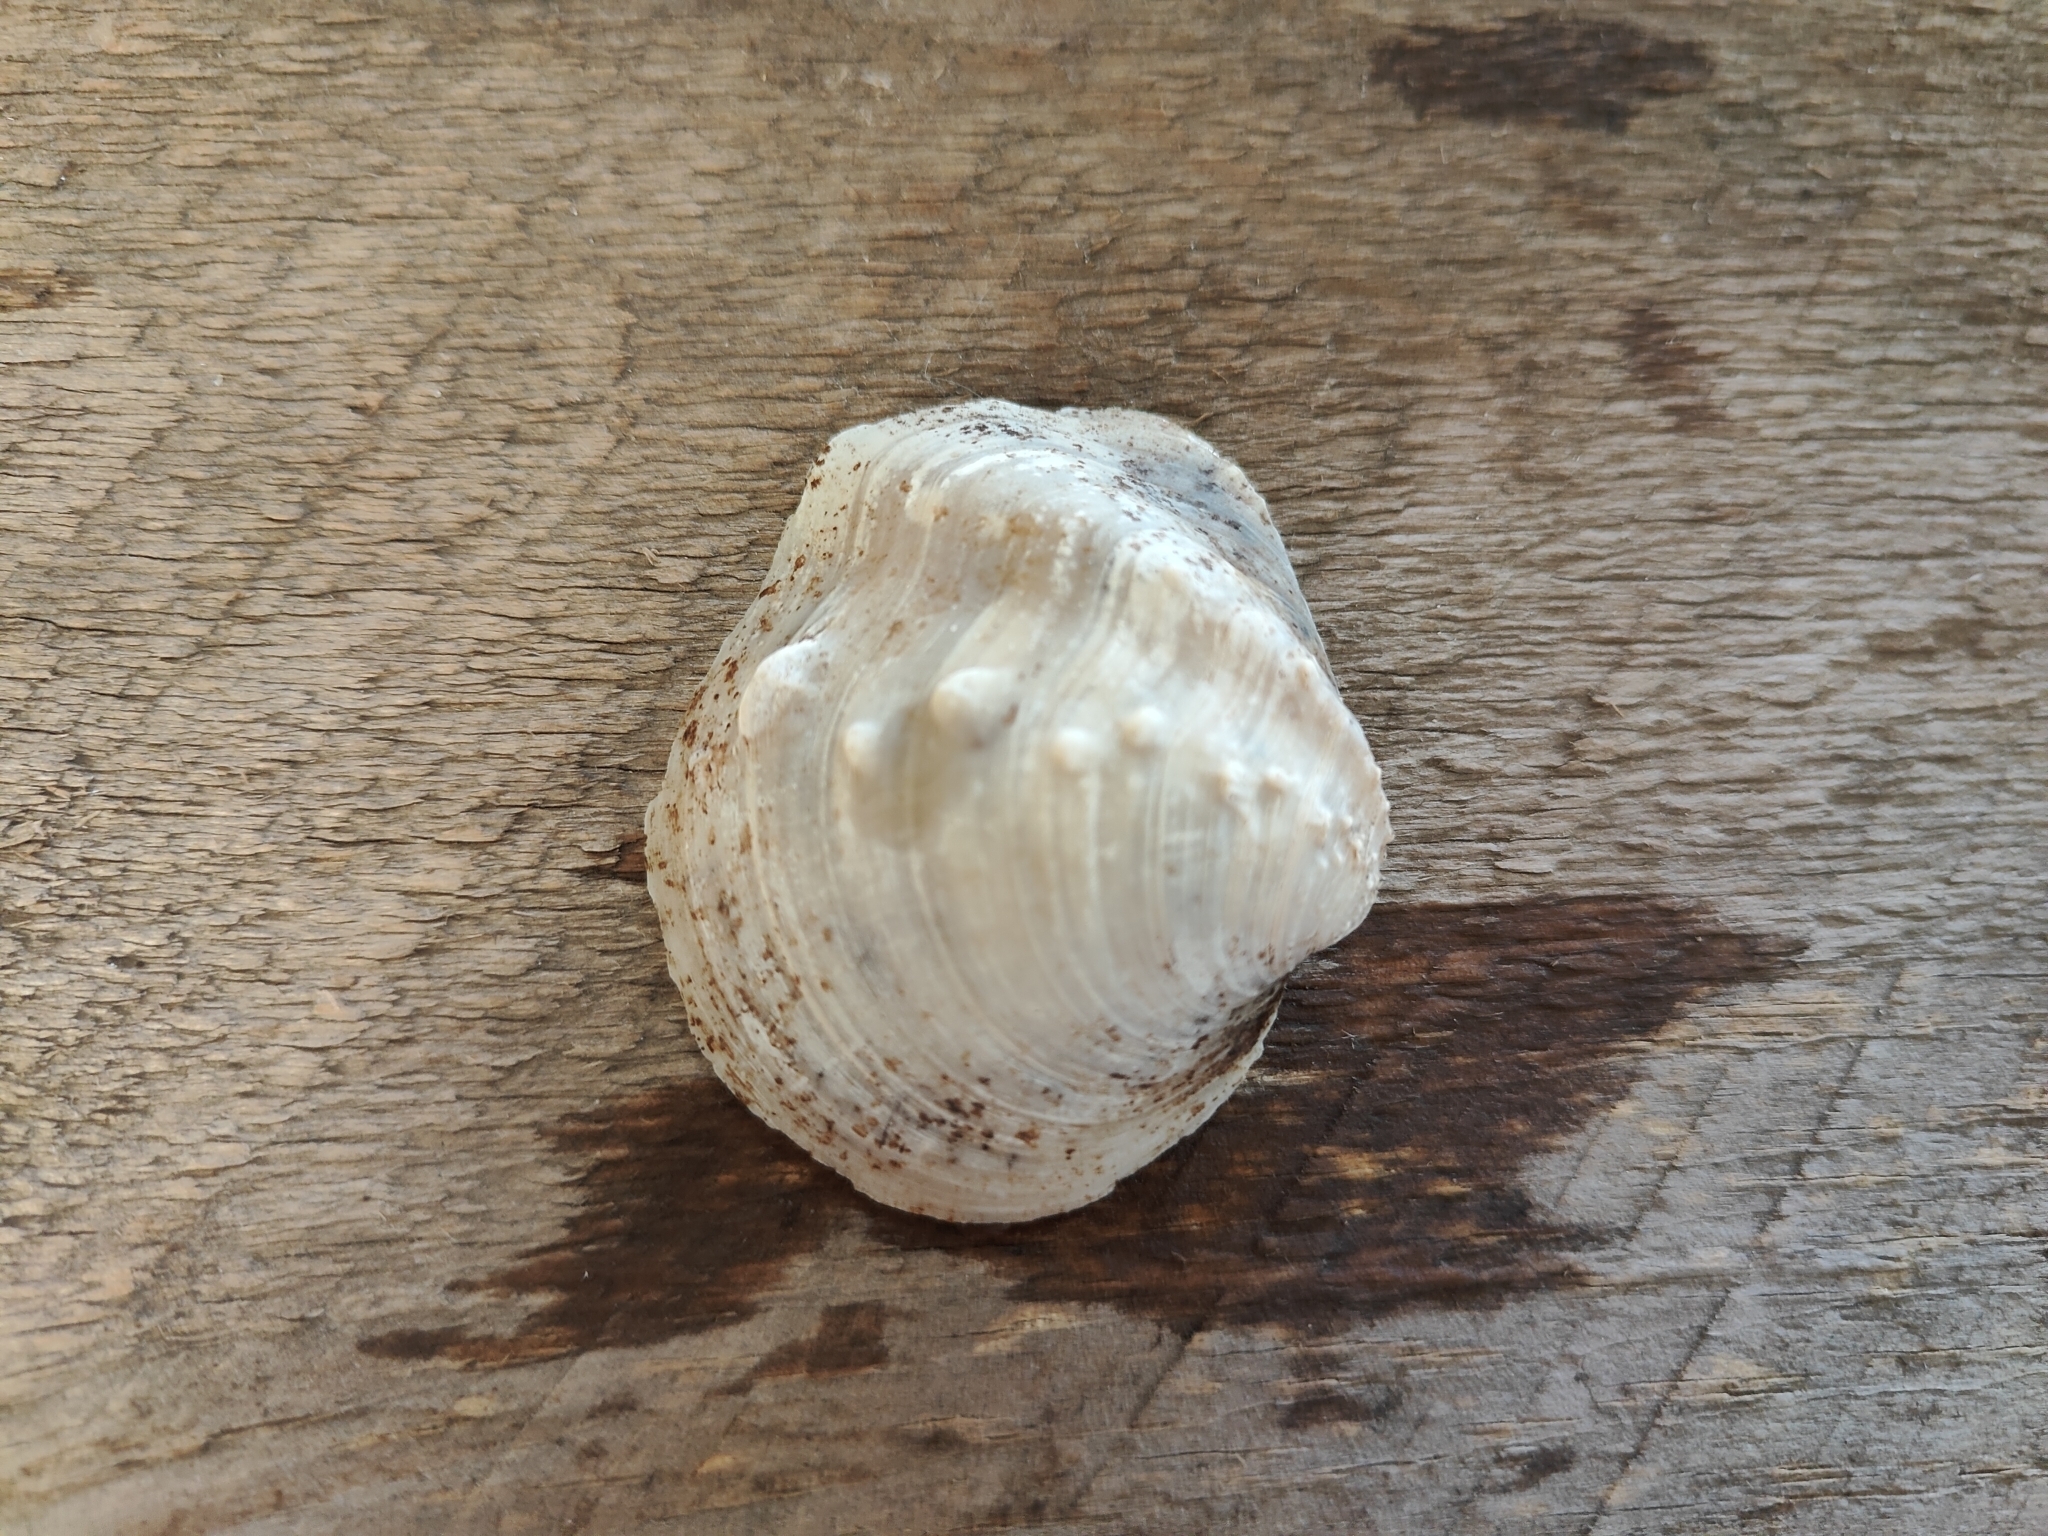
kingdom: Animalia
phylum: Mollusca
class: Bivalvia
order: Unionida
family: Unionidae
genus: Quadrula
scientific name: Quadrula quadrula
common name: Mapleleaf
